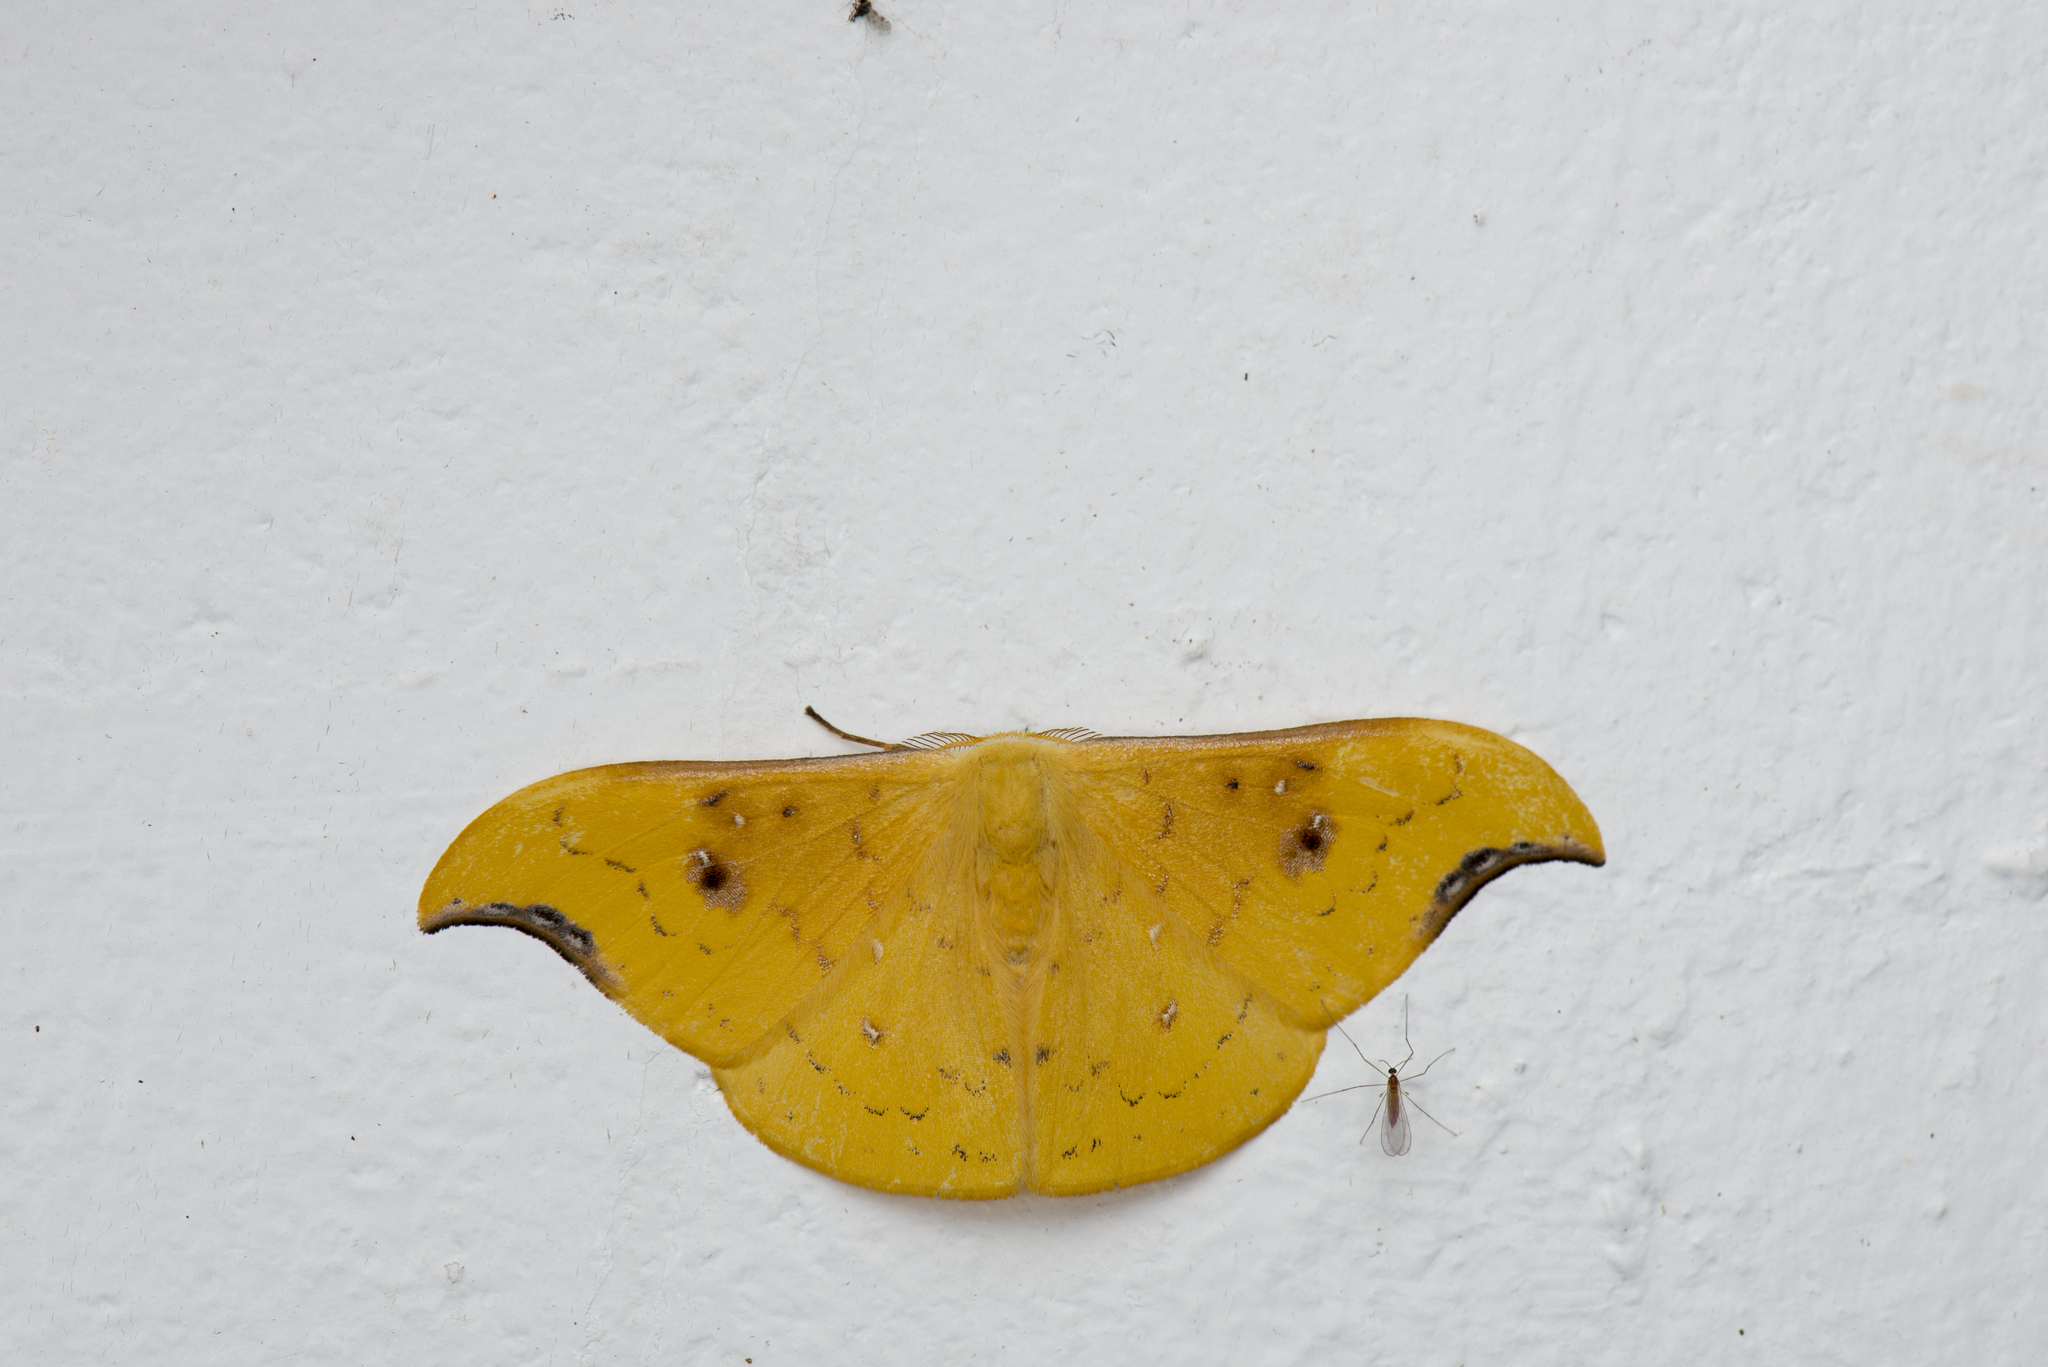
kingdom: Animalia
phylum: Arthropoda
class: Insecta
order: Lepidoptera
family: Drepanidae
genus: Tridrepana
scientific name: Tridrepana arikana
